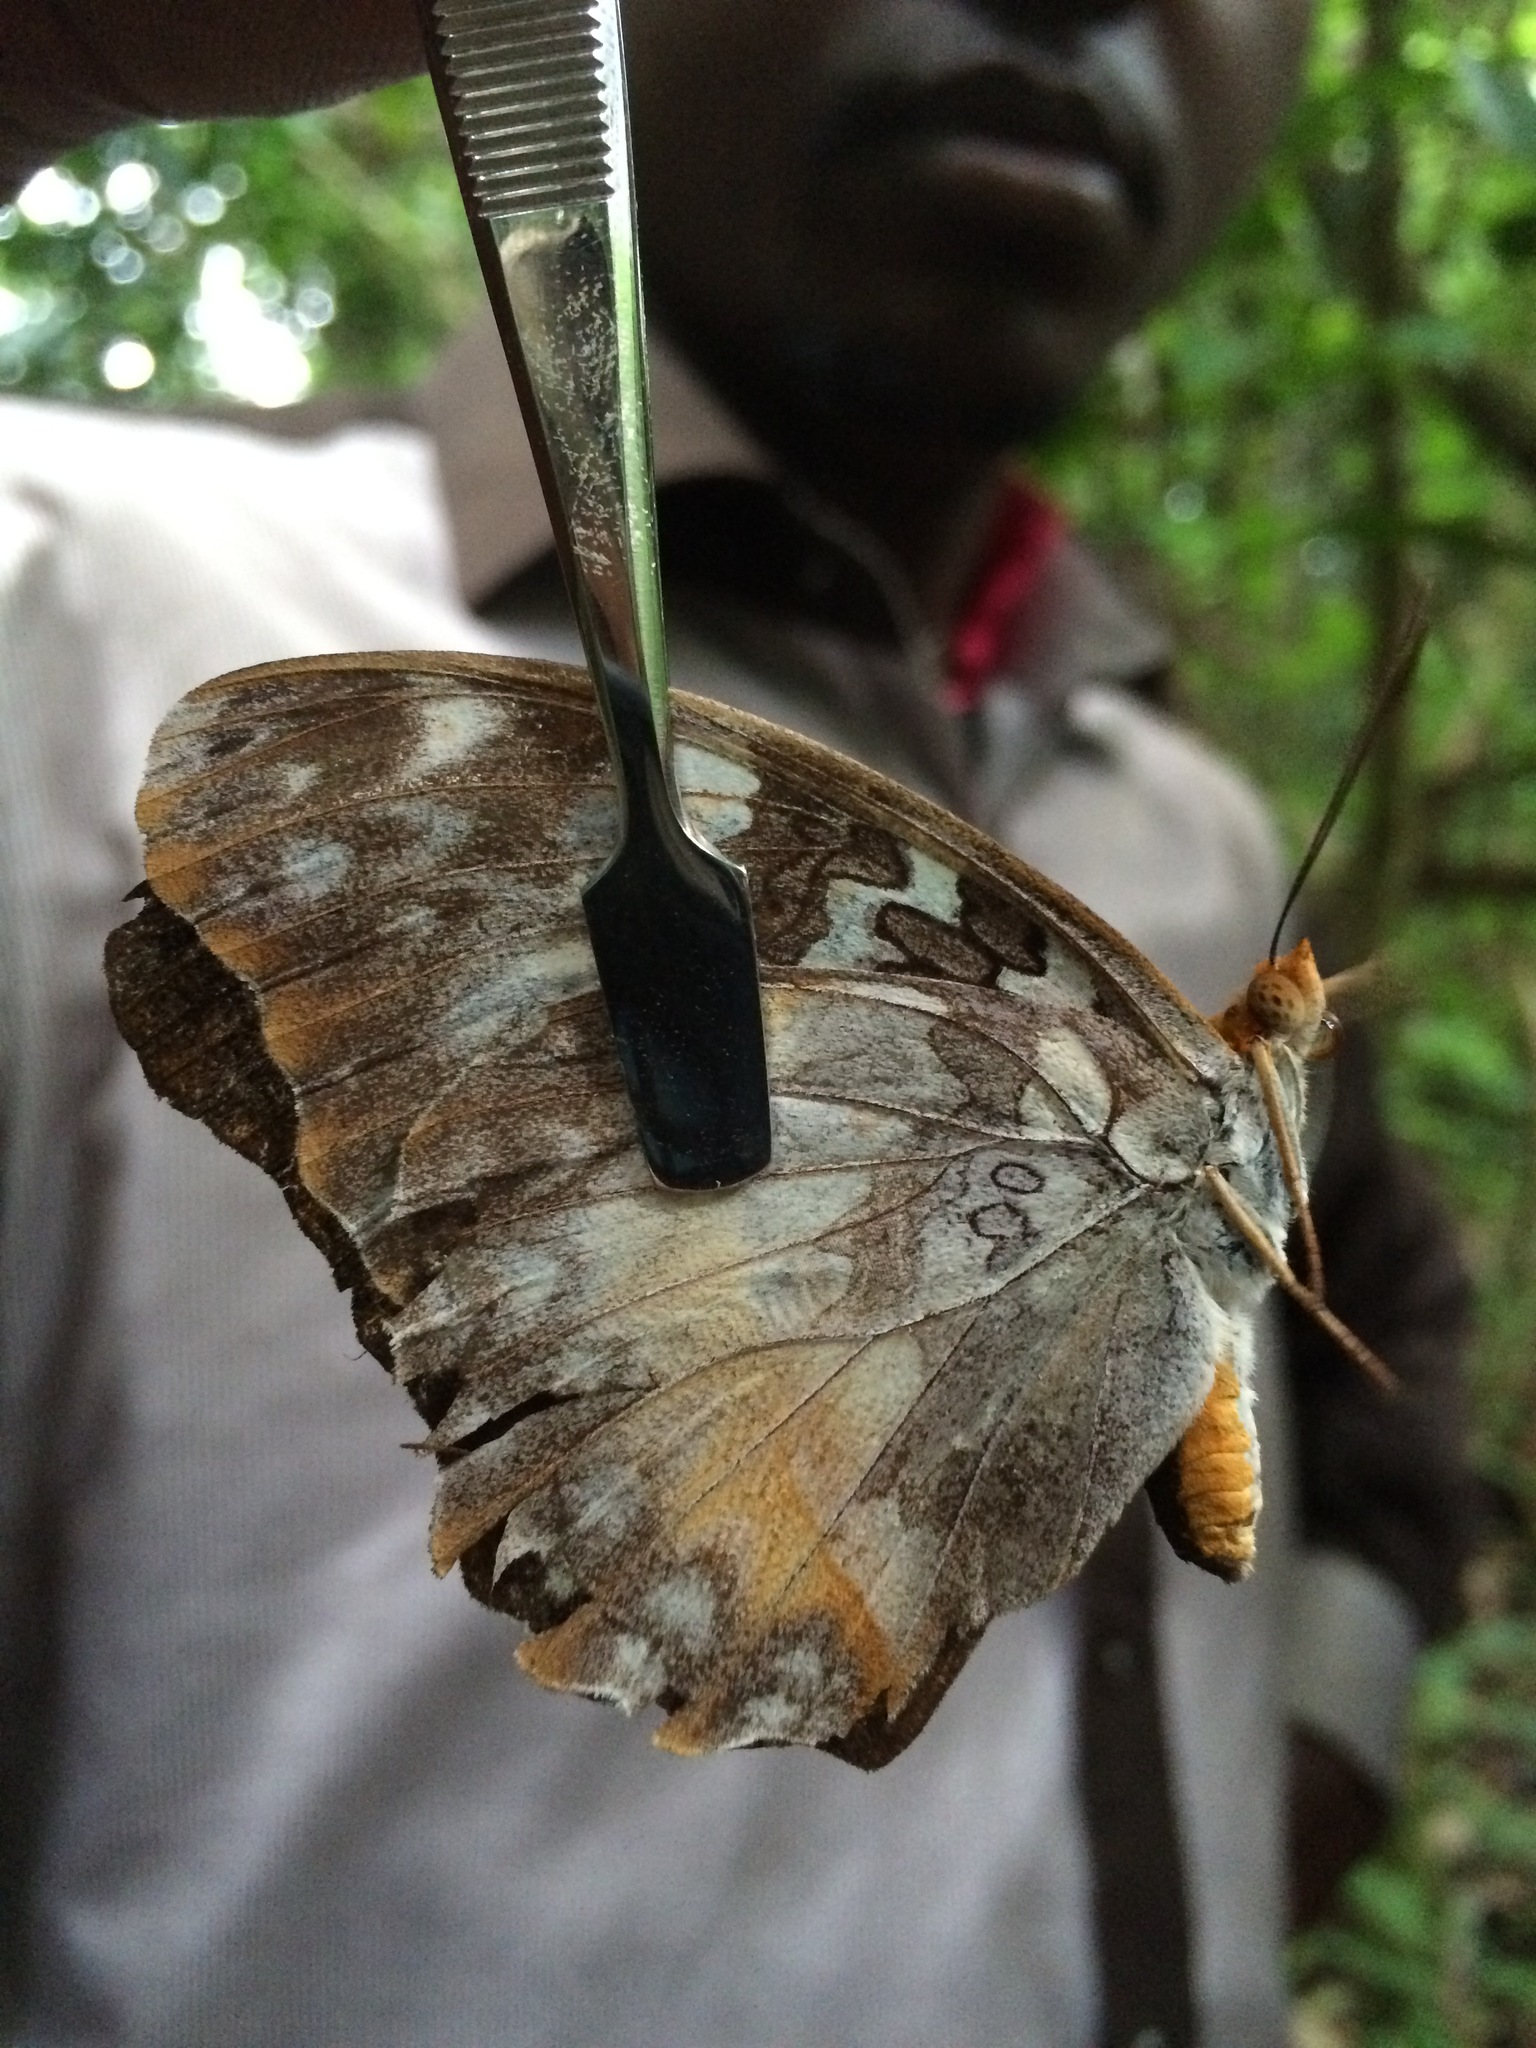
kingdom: Animalia
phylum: Arthropoda
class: Insecta
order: Lepidoptera
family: Nymphalidae
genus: Cymothoe
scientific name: Cymothoe beckeri
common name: Becker's creamy yellow glider
